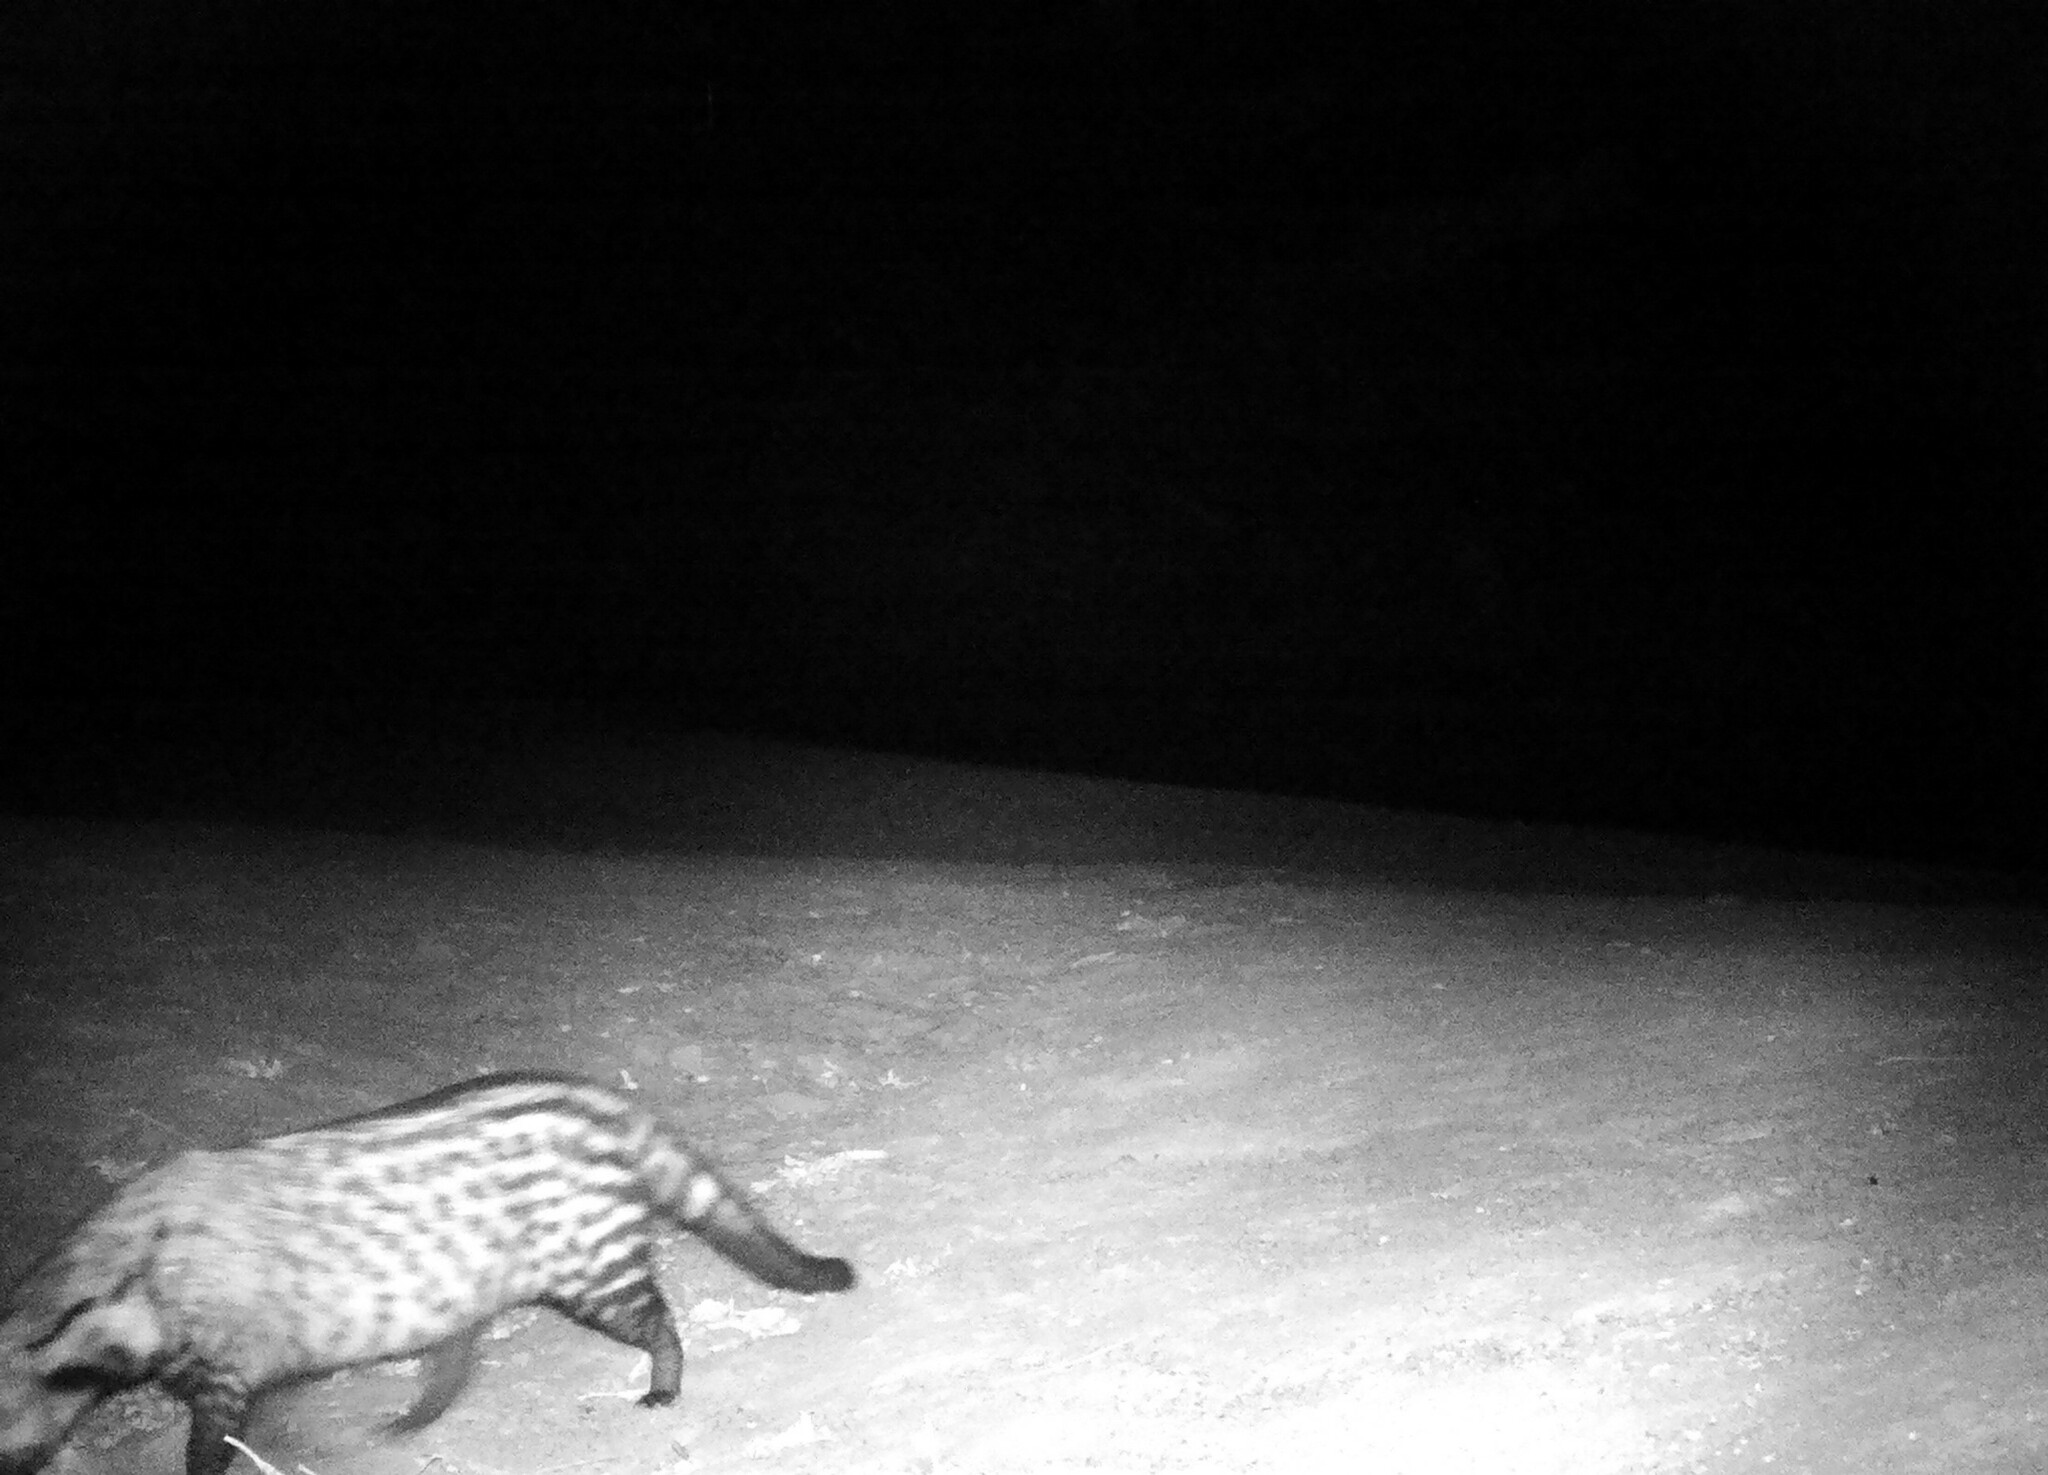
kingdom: Animalia
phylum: Chordata
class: Mammalia
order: Carnivora
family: Viverridae
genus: Civettictis
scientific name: Civettictis civetta
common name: African civet
